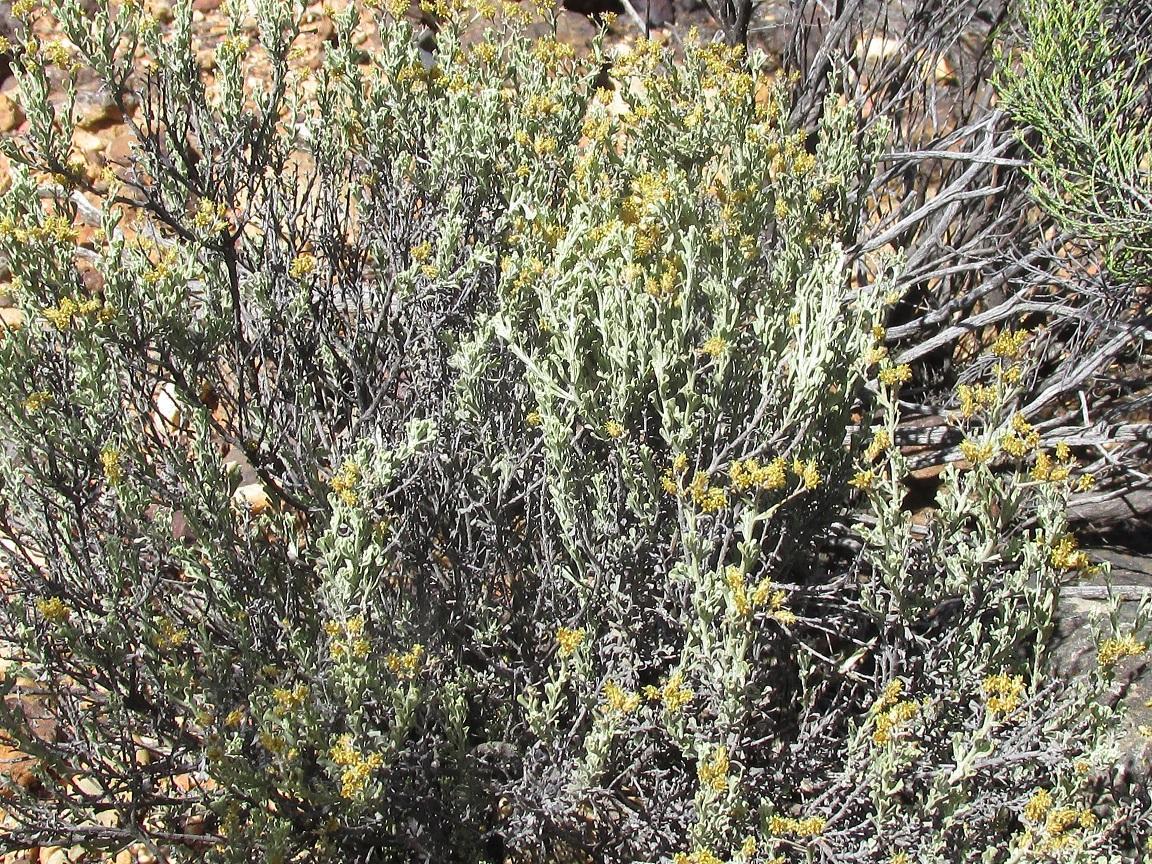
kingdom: Plantae
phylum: Tracheophyta
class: Magnoliopsida
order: Asterales
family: Asteraceae
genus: Helichrysum
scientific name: Helichrysum excisum
